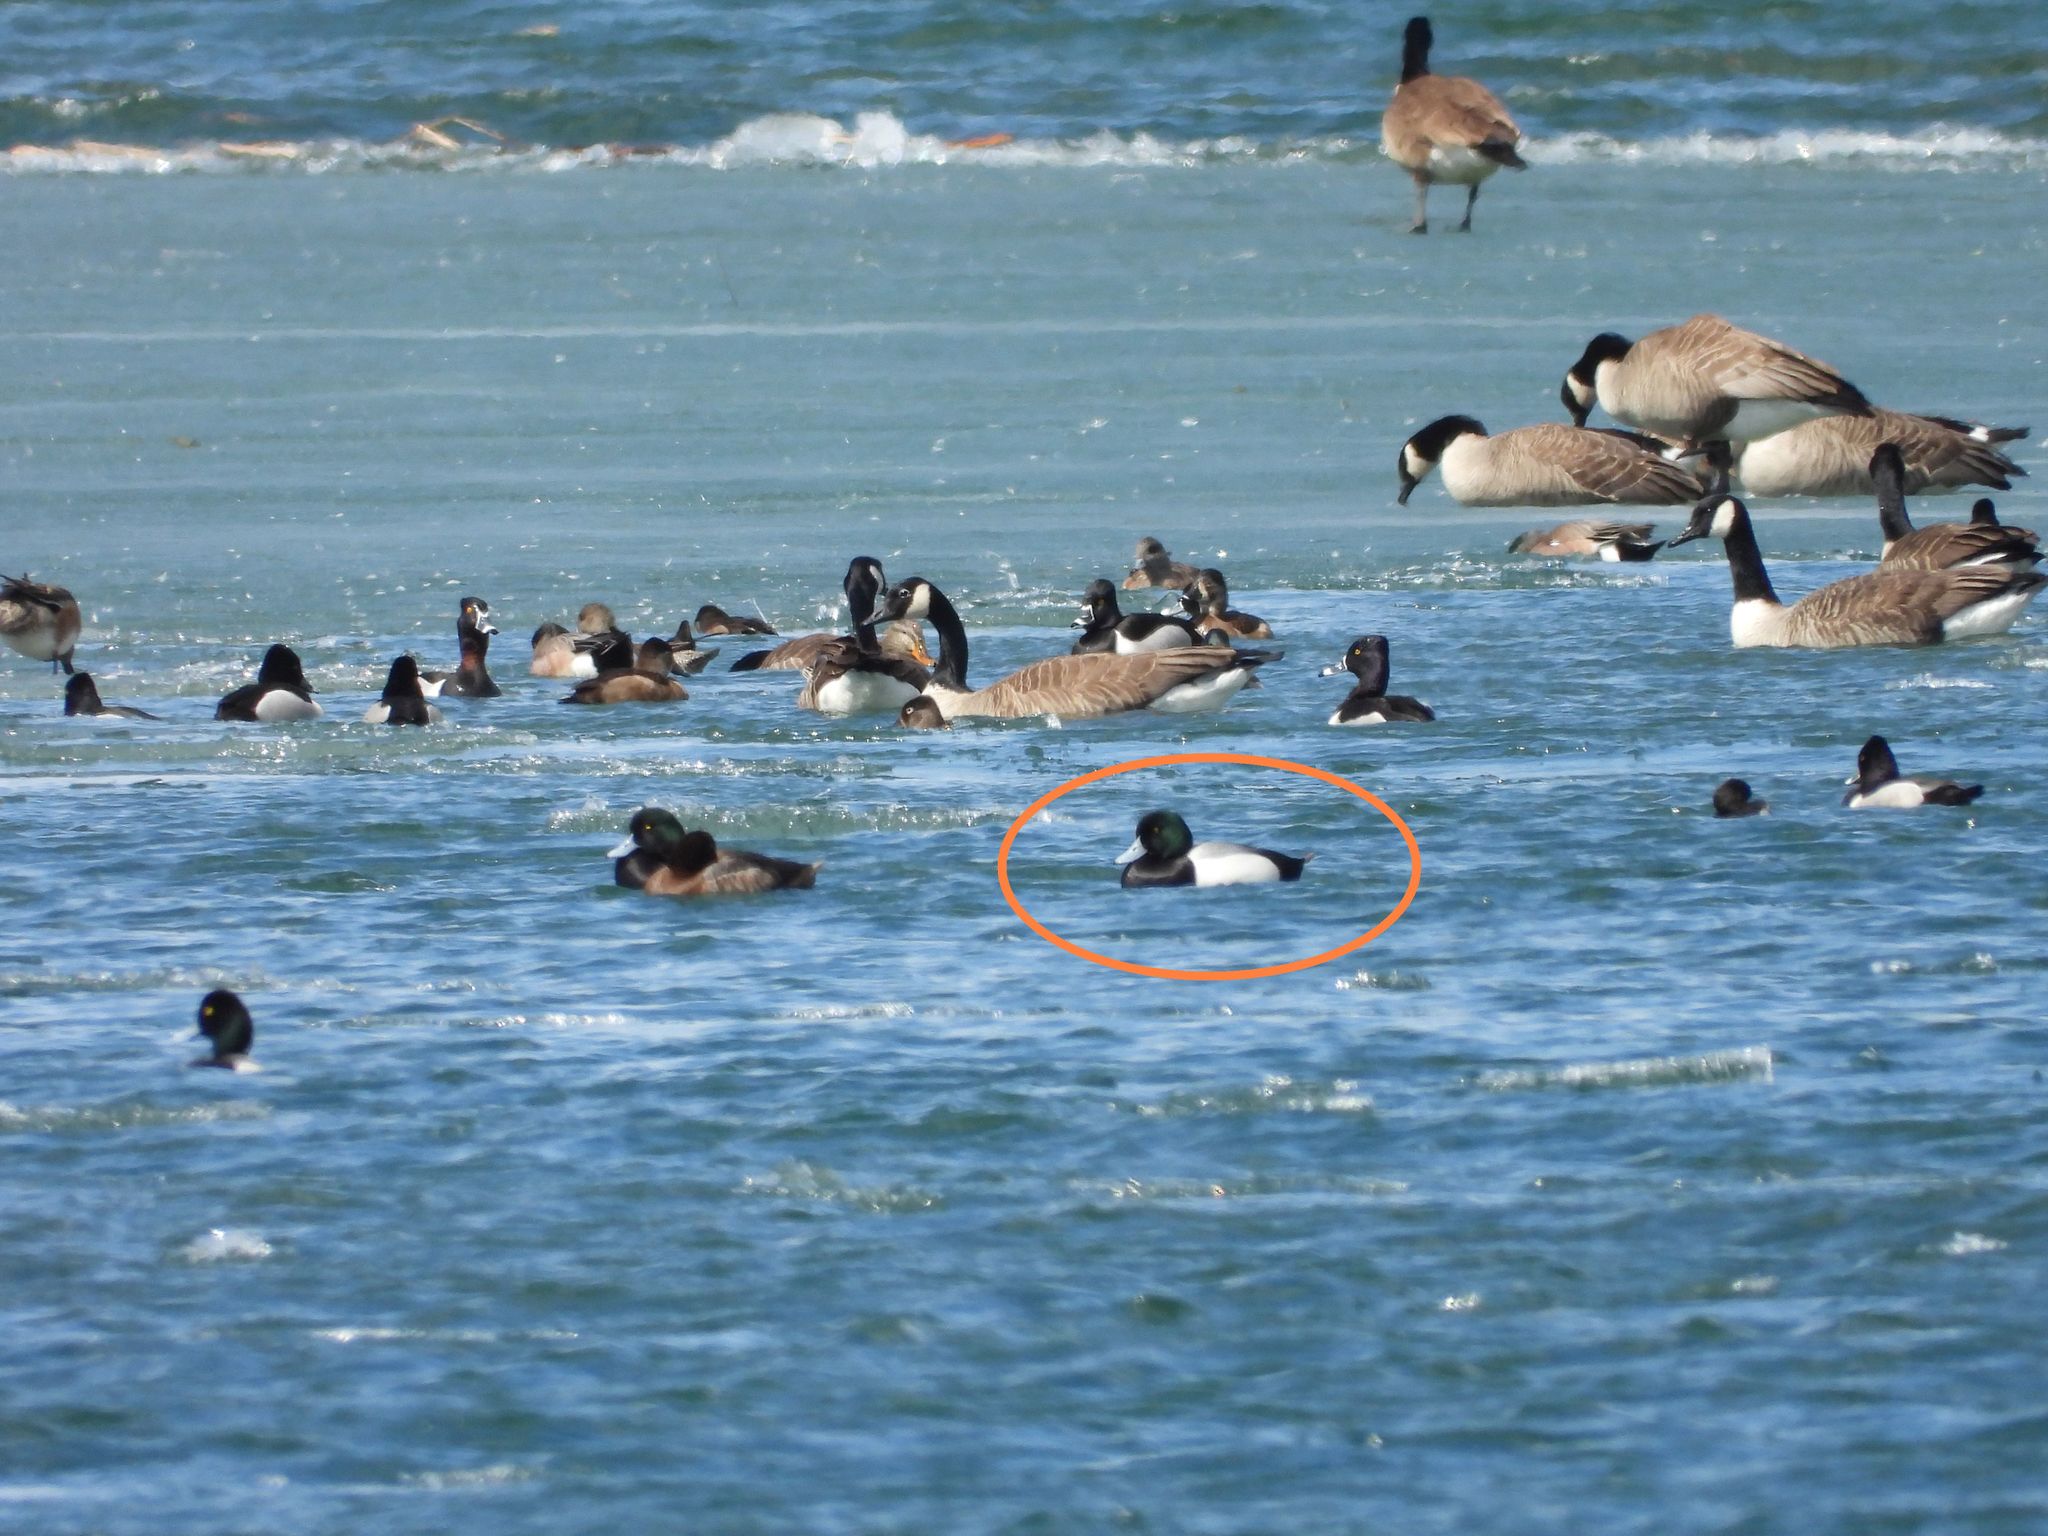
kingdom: Animalia
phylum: Chordata
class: Aves
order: Anseriformes
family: Anatidae
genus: Aythya
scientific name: Aythya marila
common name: Greater scaup
